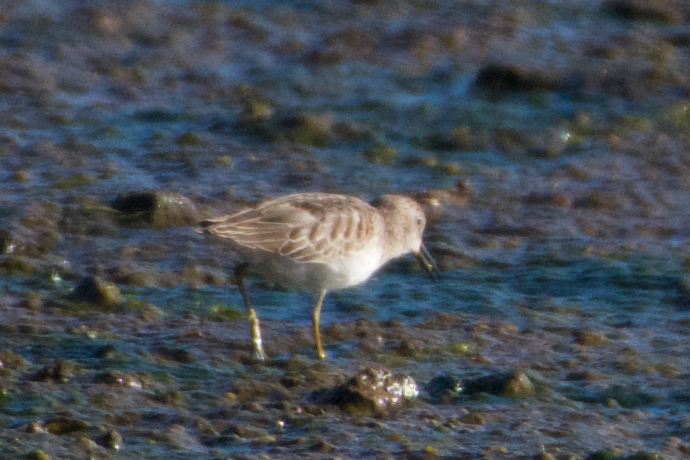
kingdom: Animalia
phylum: Chordata
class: Aves
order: Charadriiformes
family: Scolopacidae
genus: Calidris
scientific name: Calidris minutilla
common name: Least sandpiper
